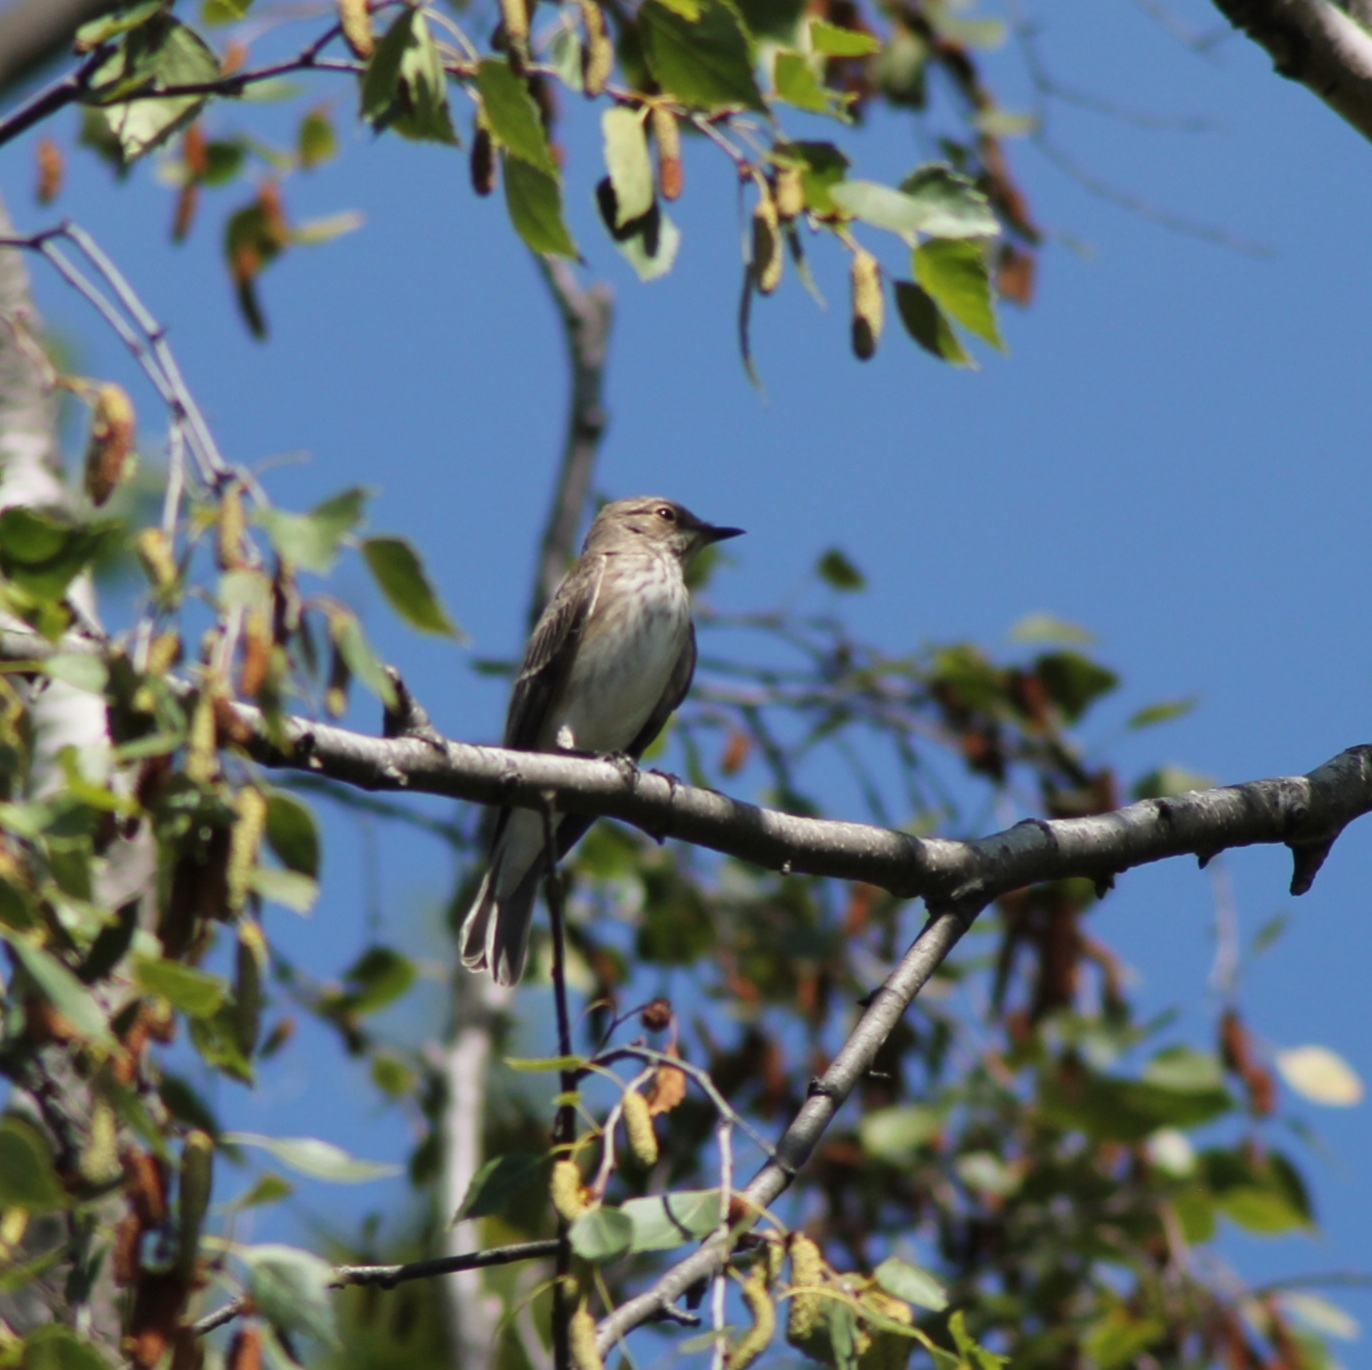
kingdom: Animalia
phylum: Chordata
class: Aves
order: Passeriformes
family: Muscicapidae
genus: Muscicapa
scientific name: Muscicapa striata
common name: Spotted flycatcher
